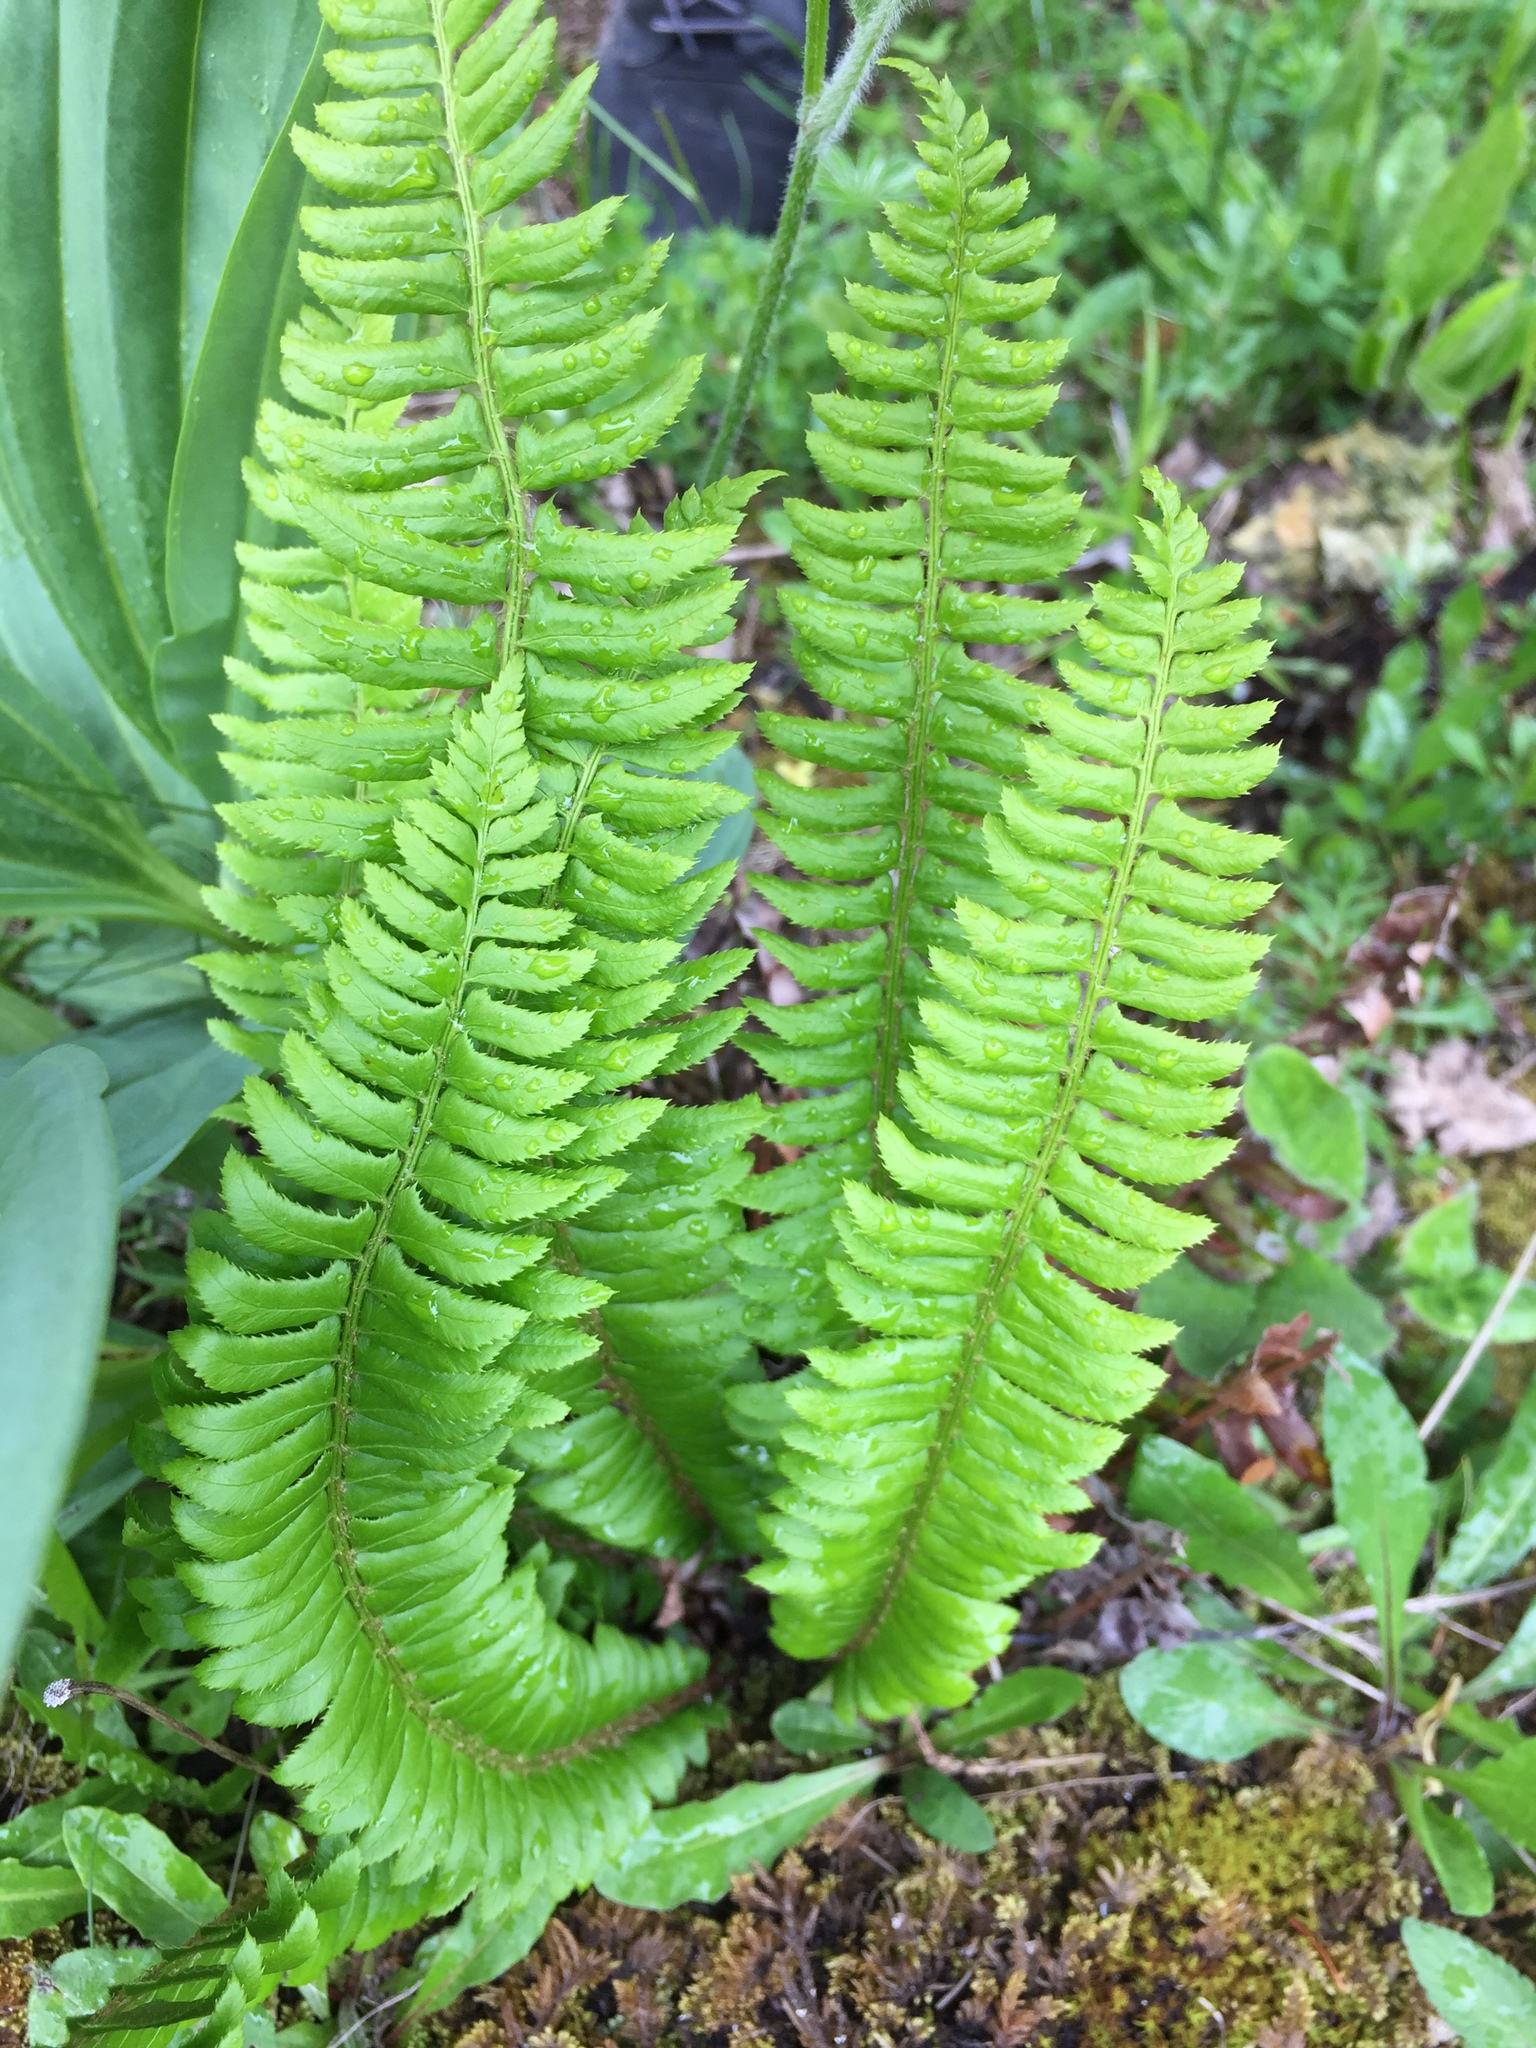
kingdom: Plantae
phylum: Tracheophyta
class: Polypodiopsida
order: Polypodiales
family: Dryopteridaceae
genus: Polystichum
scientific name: Polystichum lonchitis
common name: Holly fern
